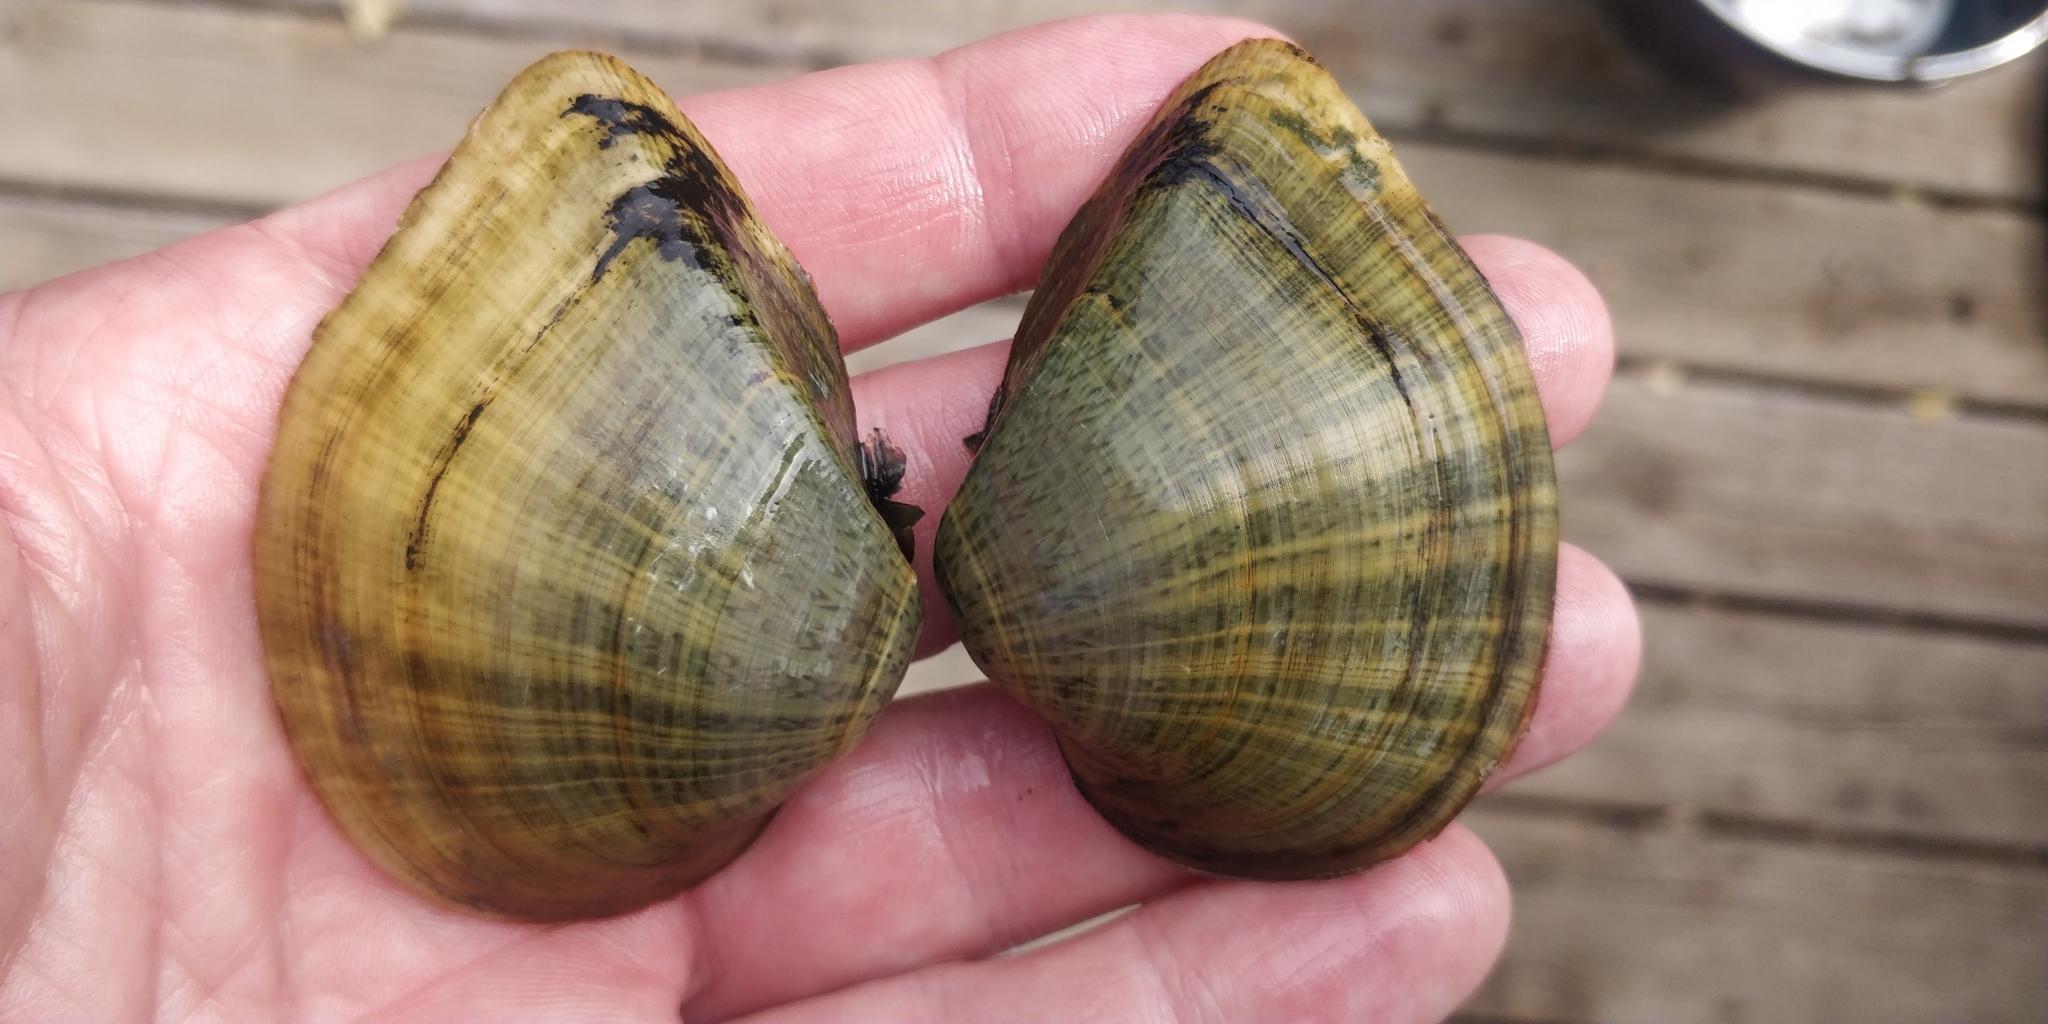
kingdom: Animalia
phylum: Mollusca
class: Bivalvia
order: Unionida
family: Unionidae
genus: Truncilla
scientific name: Truncilla truncata
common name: Deertoe
